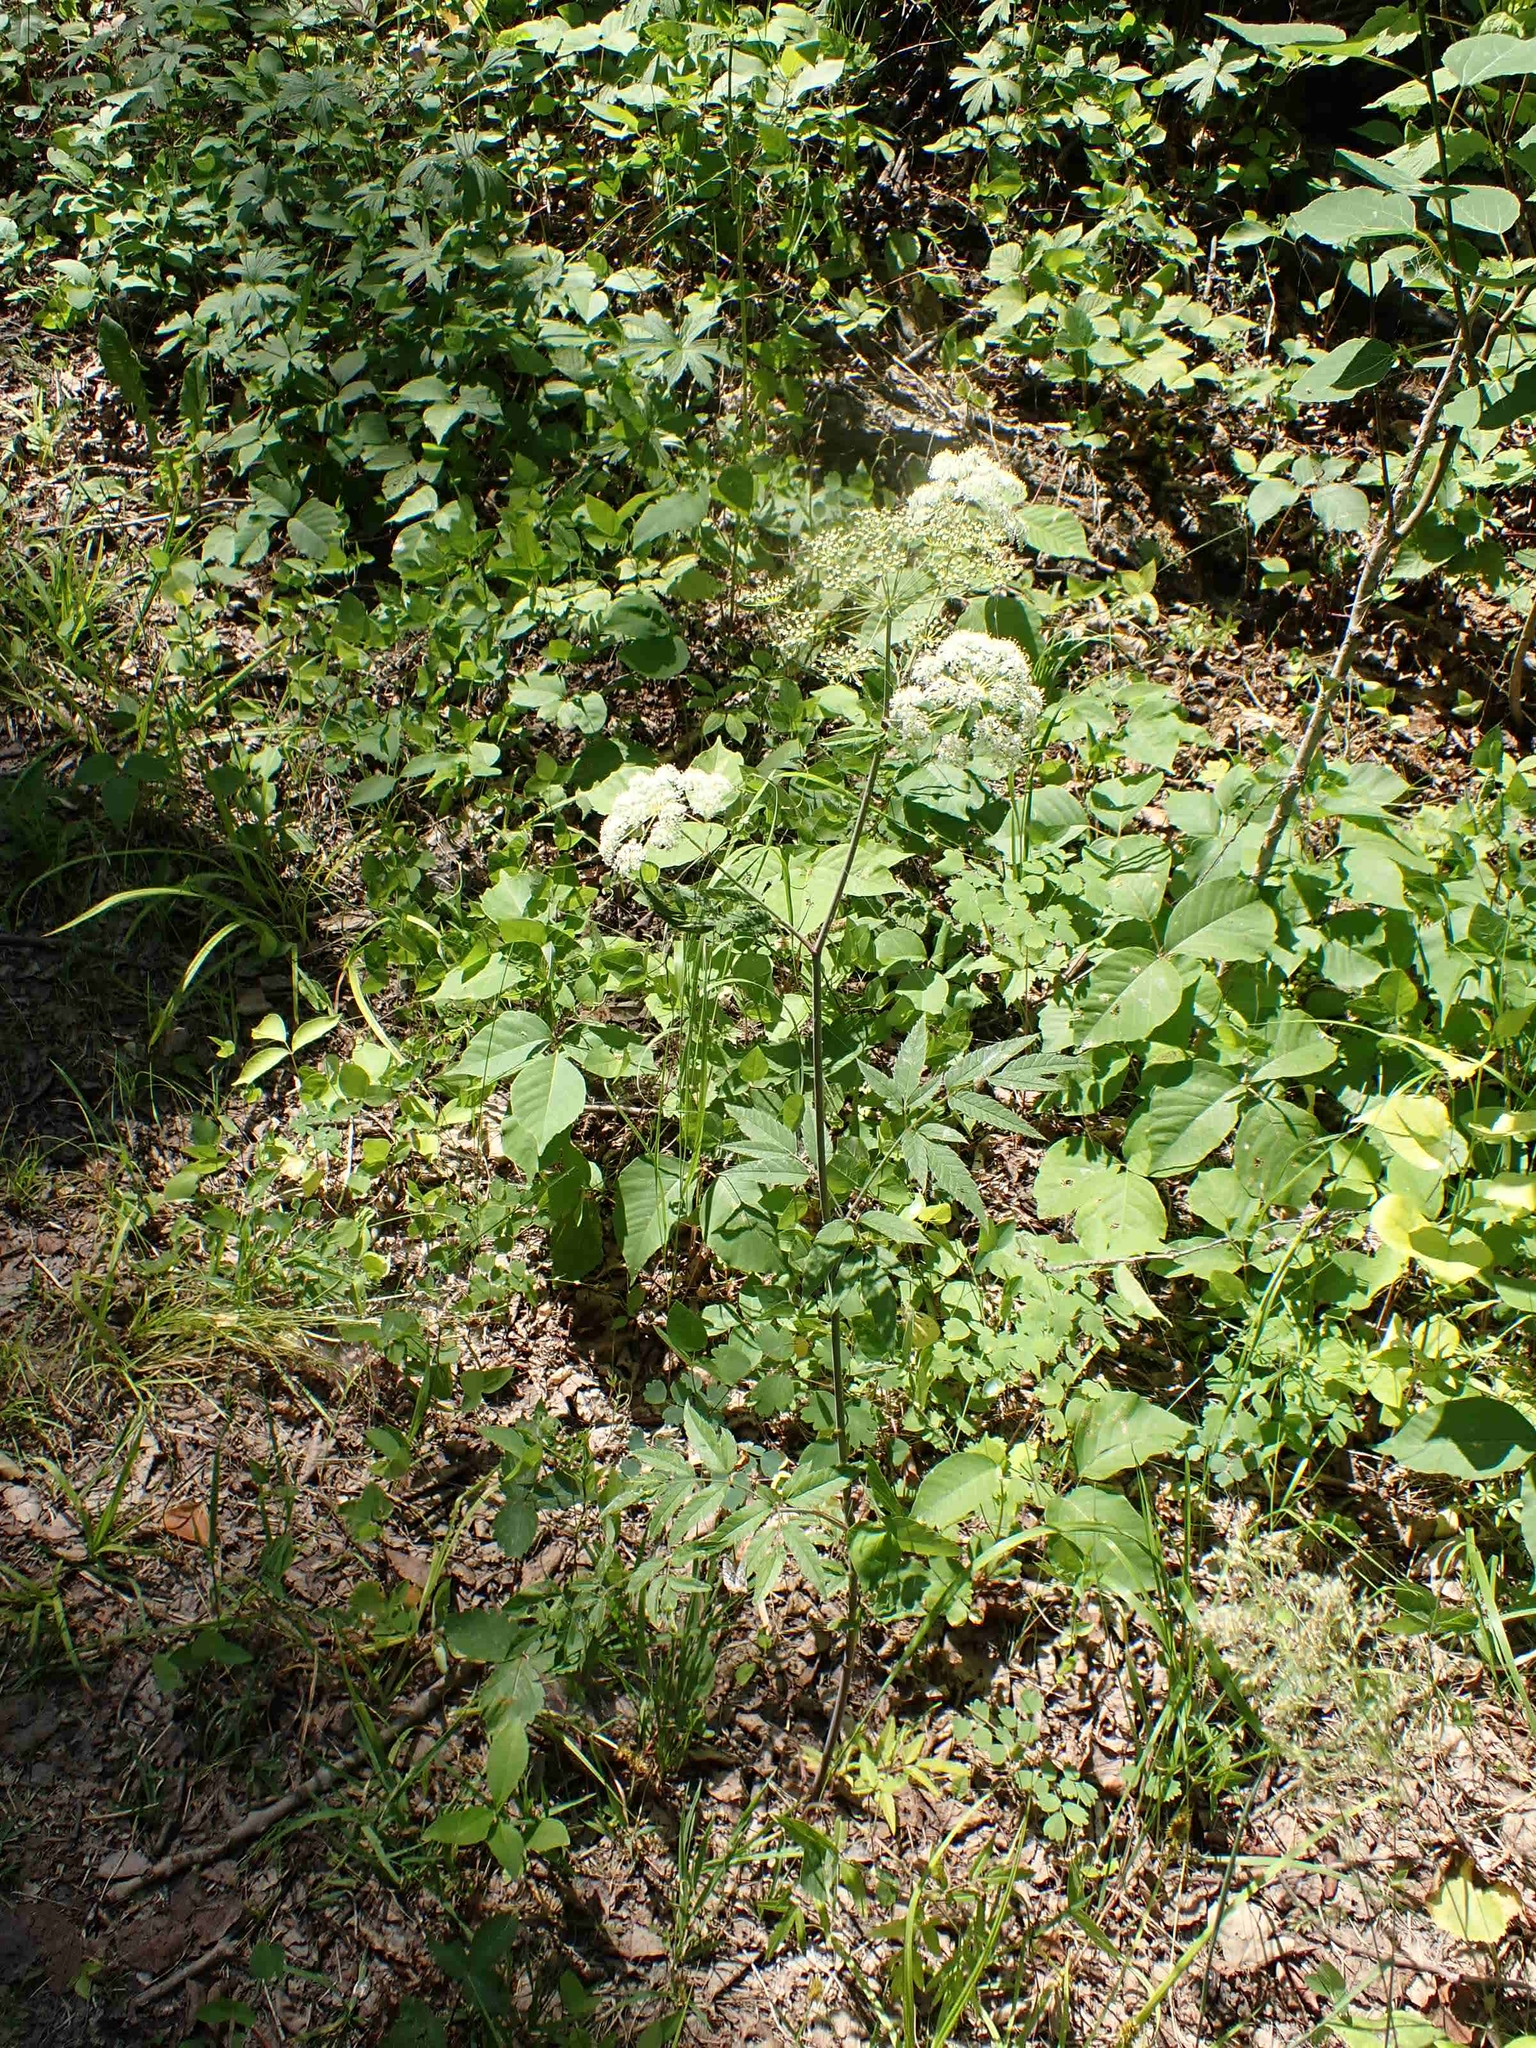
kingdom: Plantae
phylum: Tracheophyta
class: Magnoliopsida
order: Apiales
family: Apiaceae
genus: Cicuta
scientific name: Cicuta maculata
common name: Spotted cowbane
